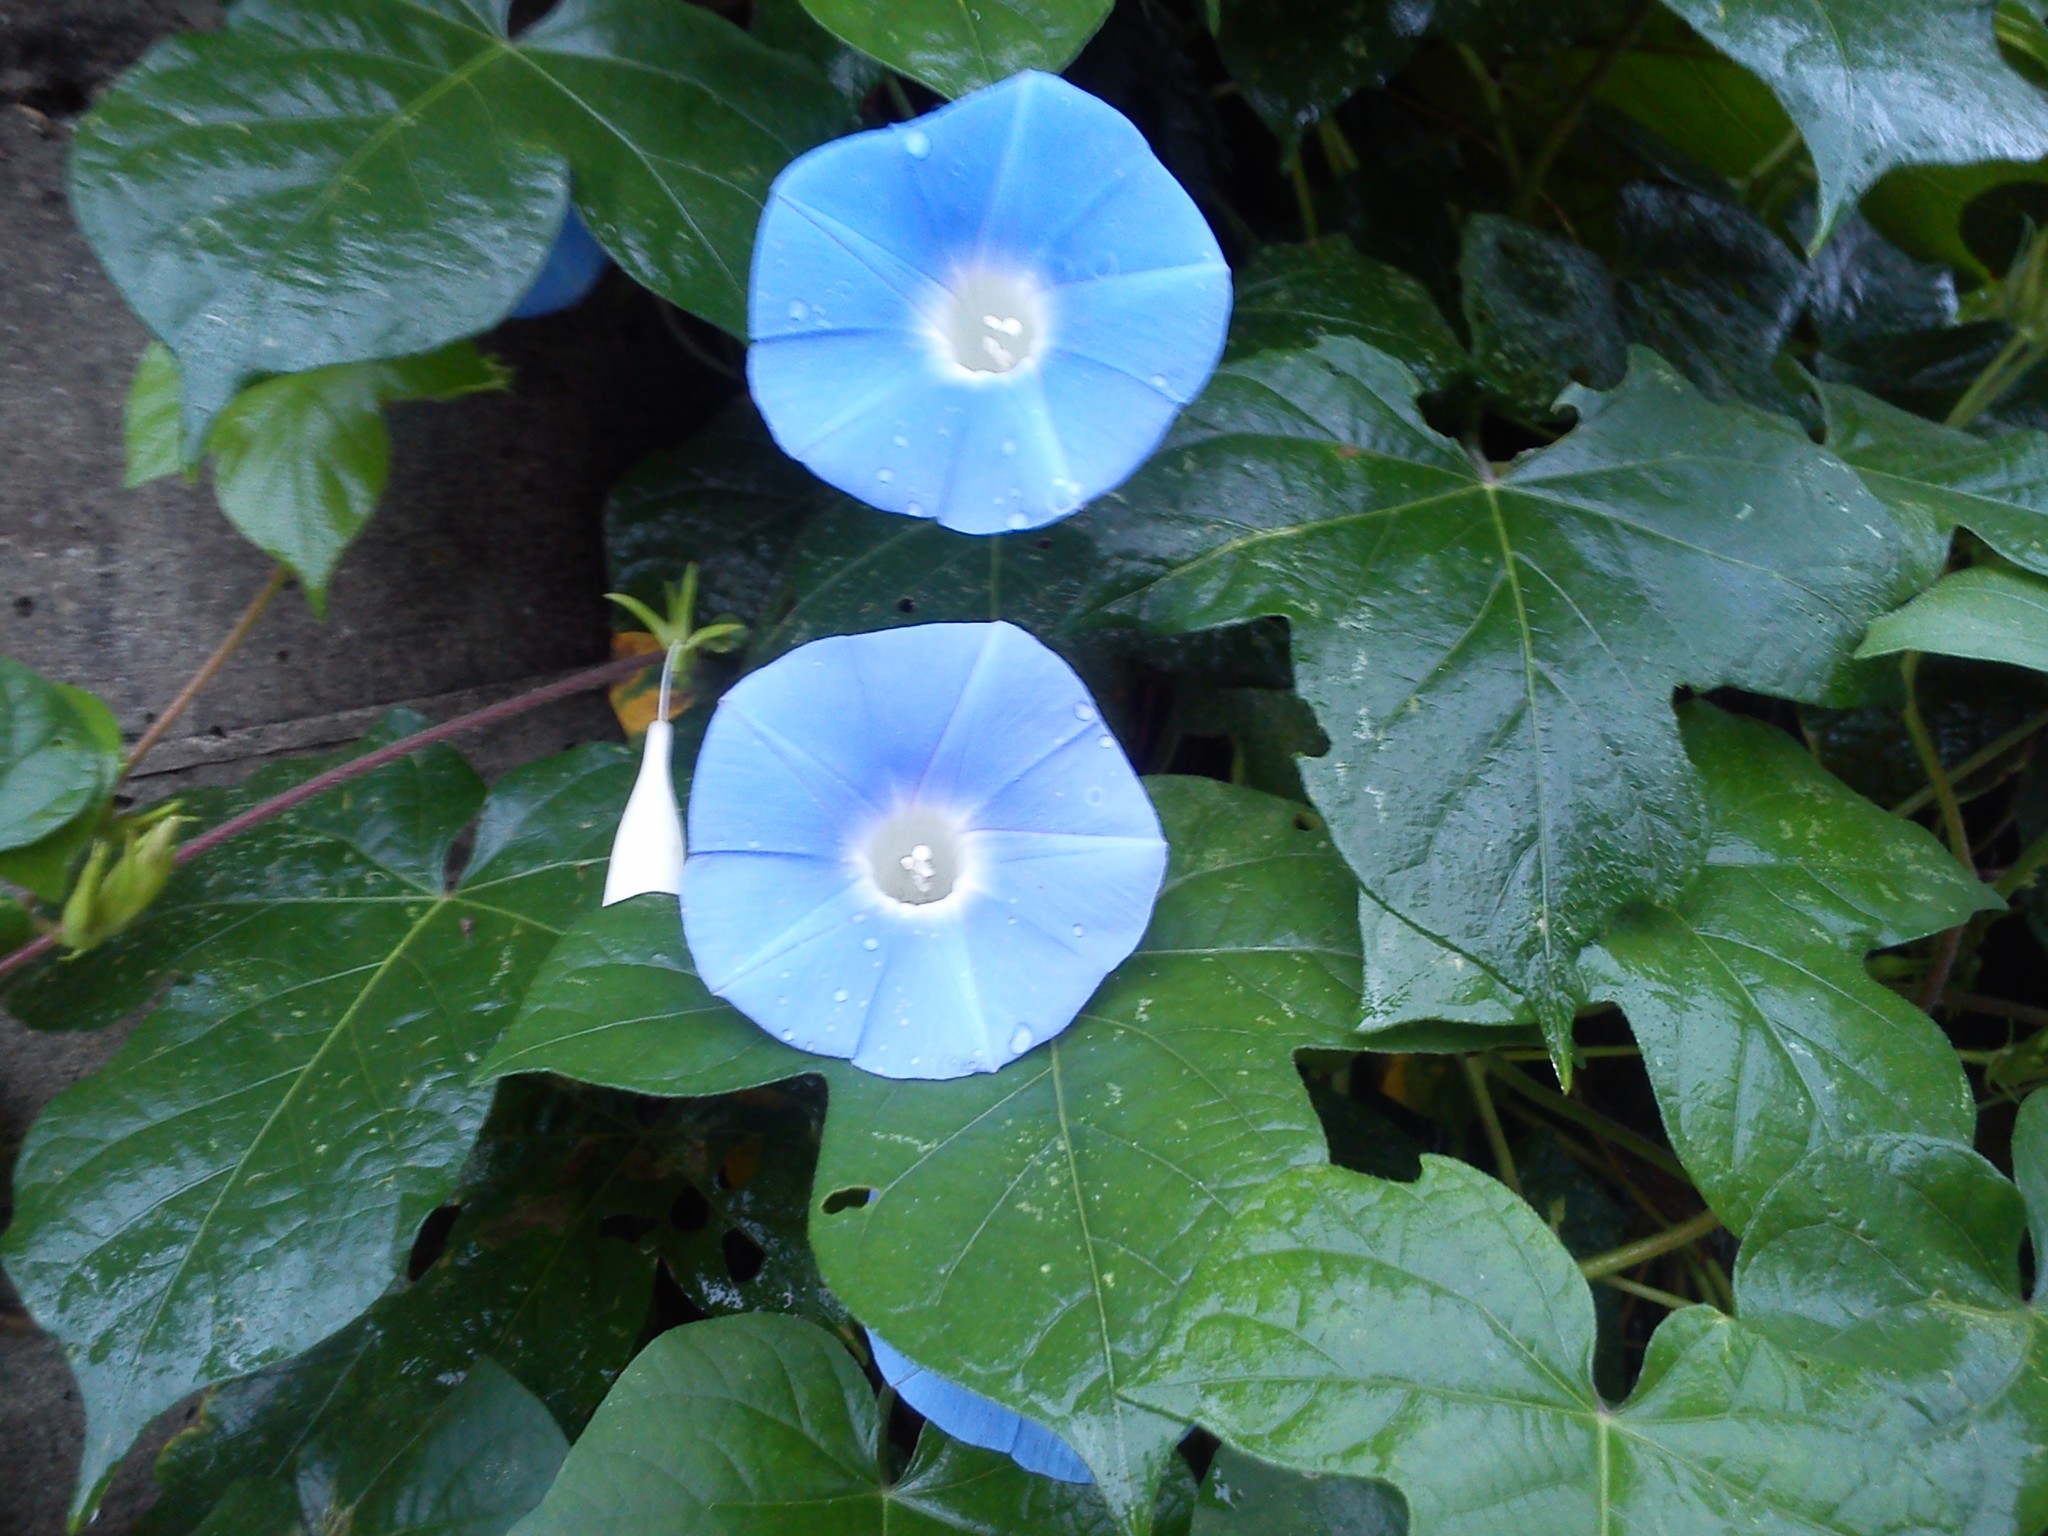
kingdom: Plantae
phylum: Tracheophyta
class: Magnoliopsida
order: Solanales
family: Convolvulaceae
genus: Ipomoea
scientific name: Ipomoea hederacea
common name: Ivy-leaved morning-glory
